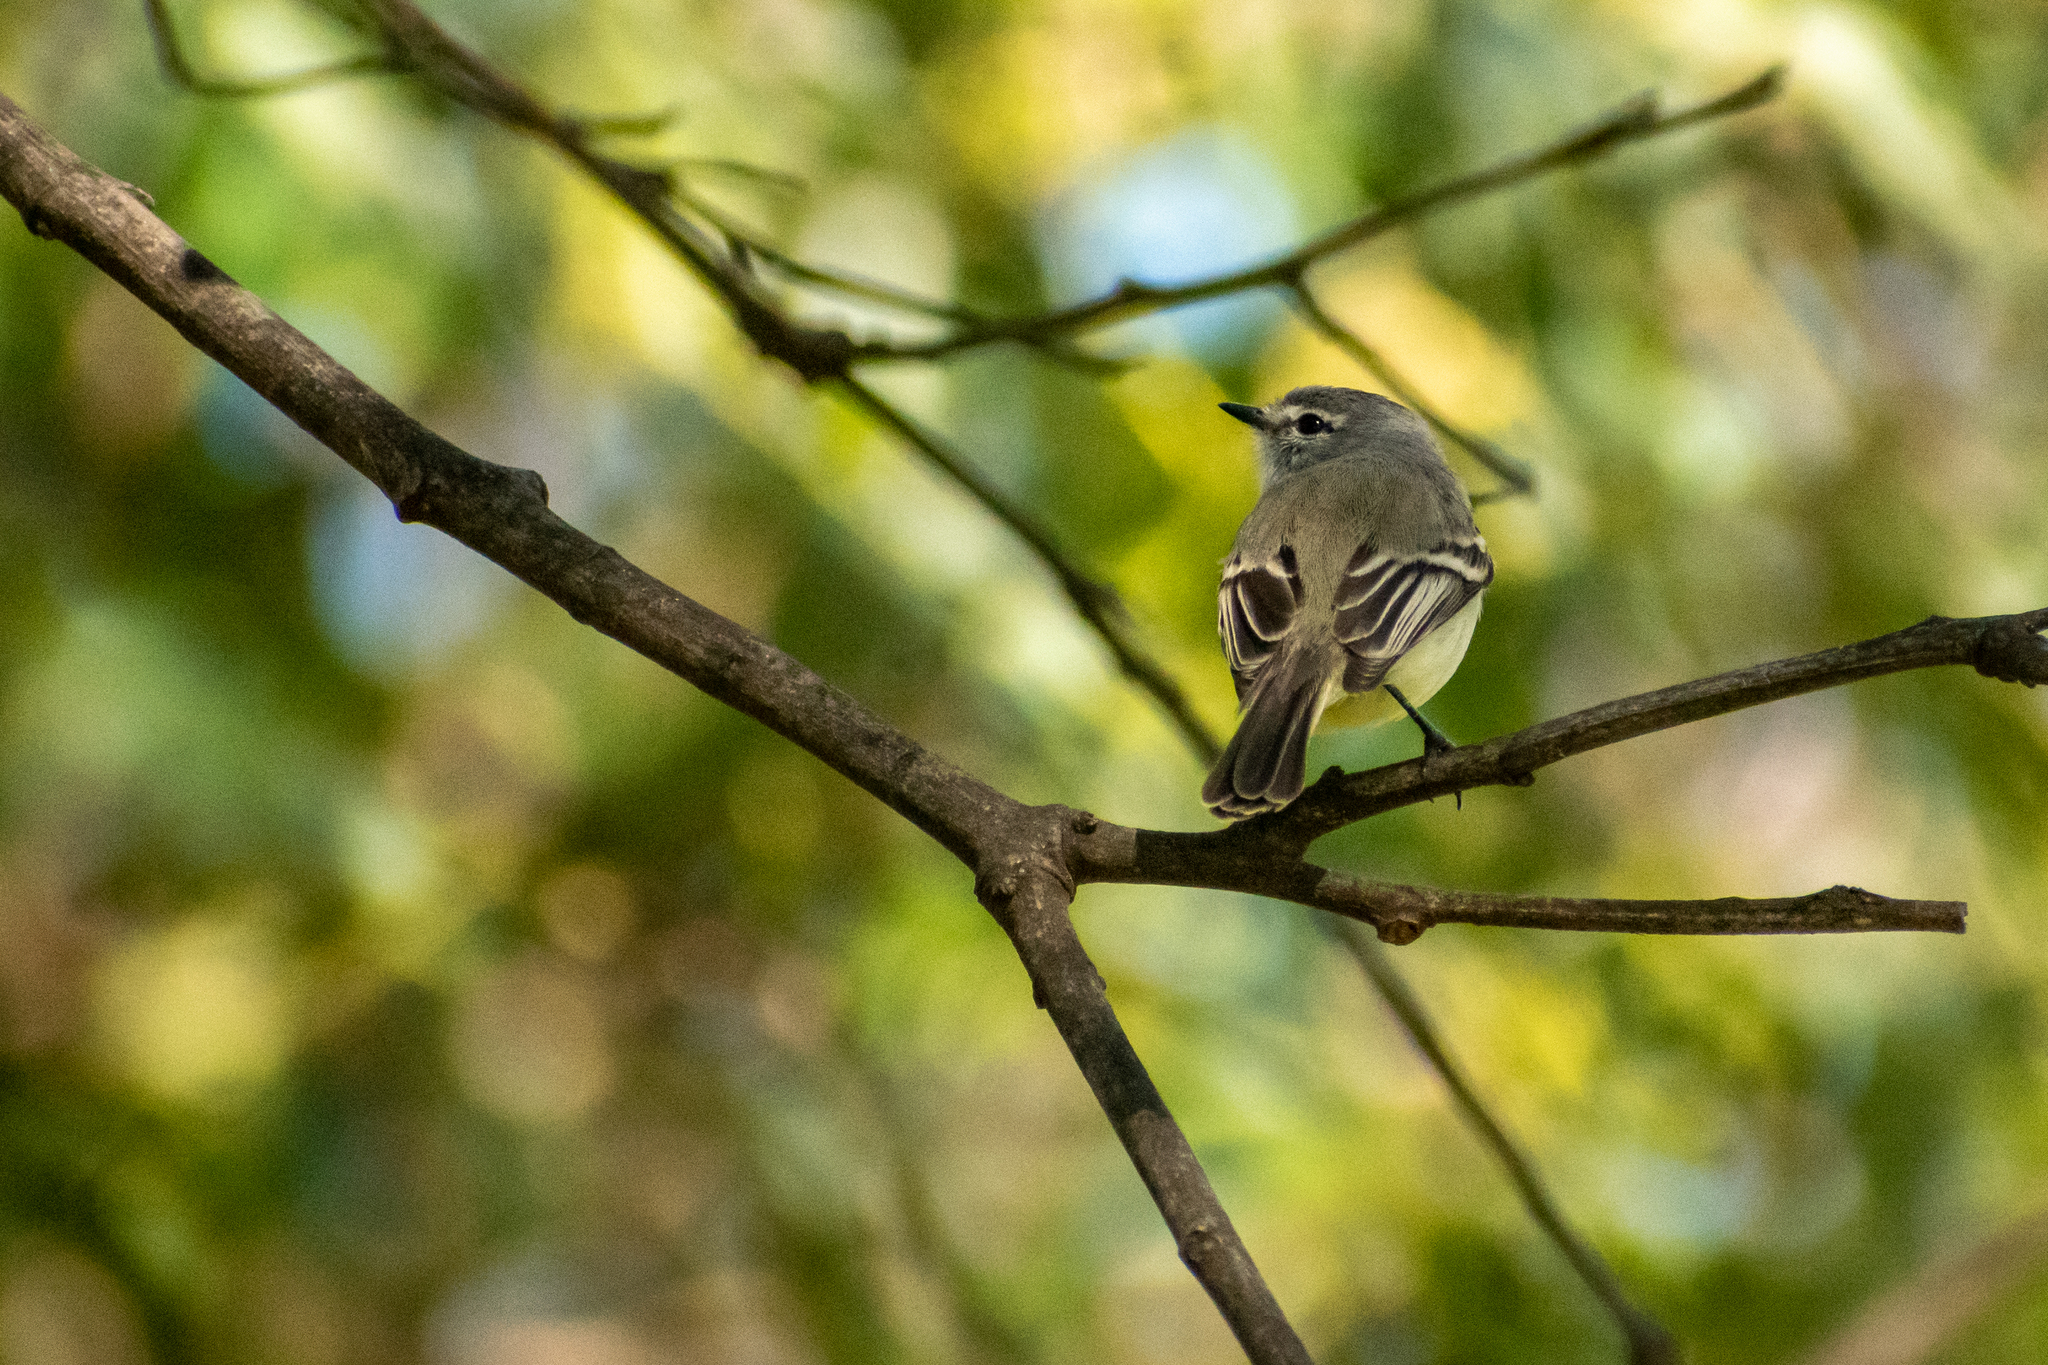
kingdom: Animalia
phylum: Chordata
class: Aves
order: Passeriformes
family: Tyrannidae
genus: Serpophaga
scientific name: Serpophaga subcristata
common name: White-crested tyrannulet
